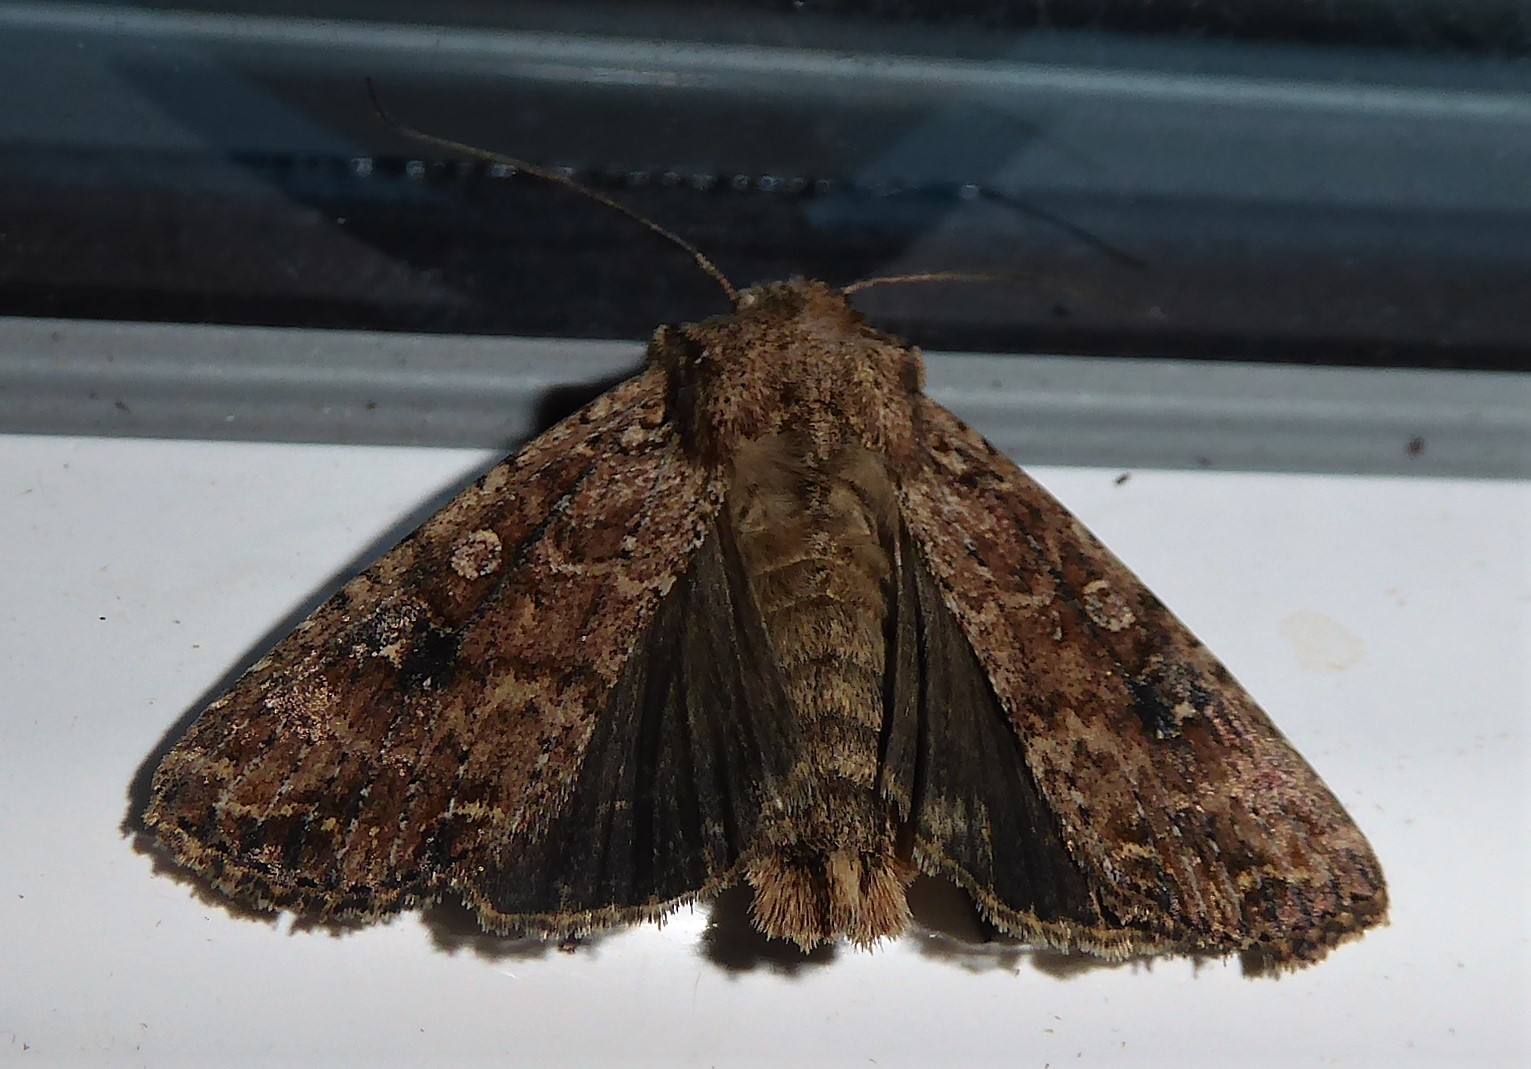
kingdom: Animalia
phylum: Arthropoda
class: Insecta
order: Lepidoptera
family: Noctuidae
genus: Ichneutica
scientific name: Ichneutica morosa
